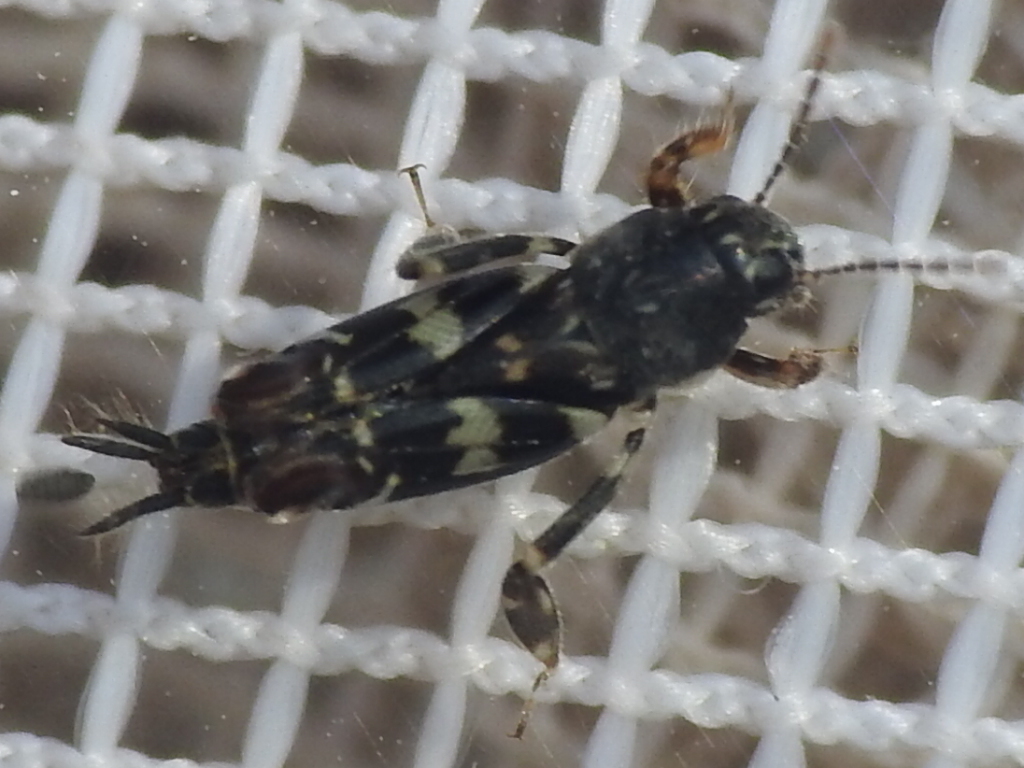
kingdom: Animalia
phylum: Arthropoda
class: Insecta
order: Orthoptera
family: Tridactylidae
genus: Ellipes
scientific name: Ellipes minuta
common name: Minute pygmy locust
